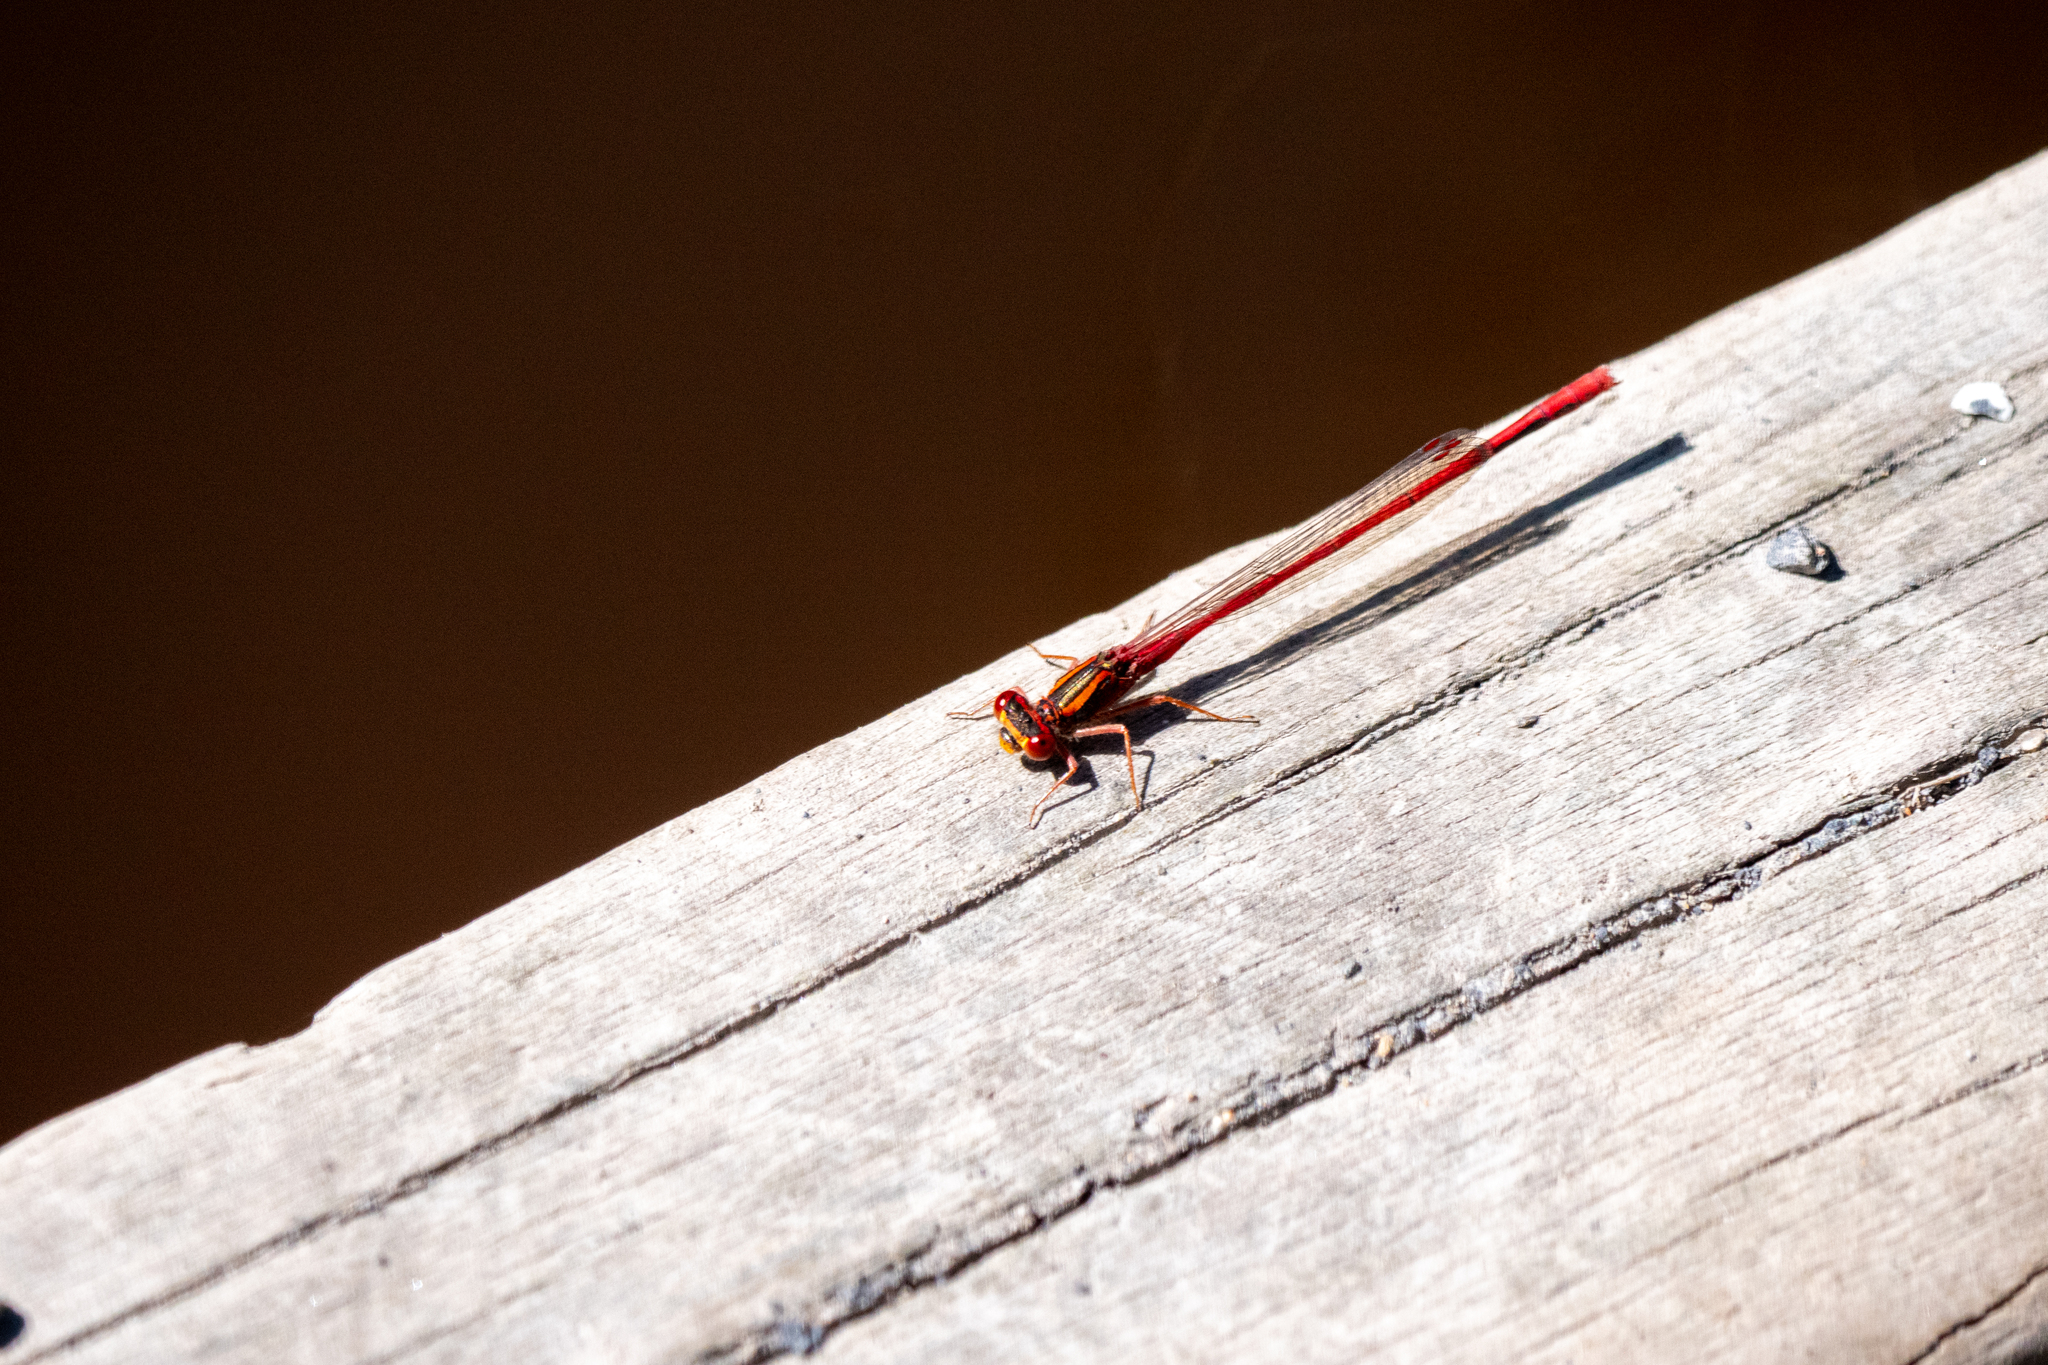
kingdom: Animalia
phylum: Arthropoda
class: Insecta
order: Odonata
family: Coenagrionidae
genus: Xanthocnemis
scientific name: Xanthocnemis zealandica
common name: Common redcoat damselfly
